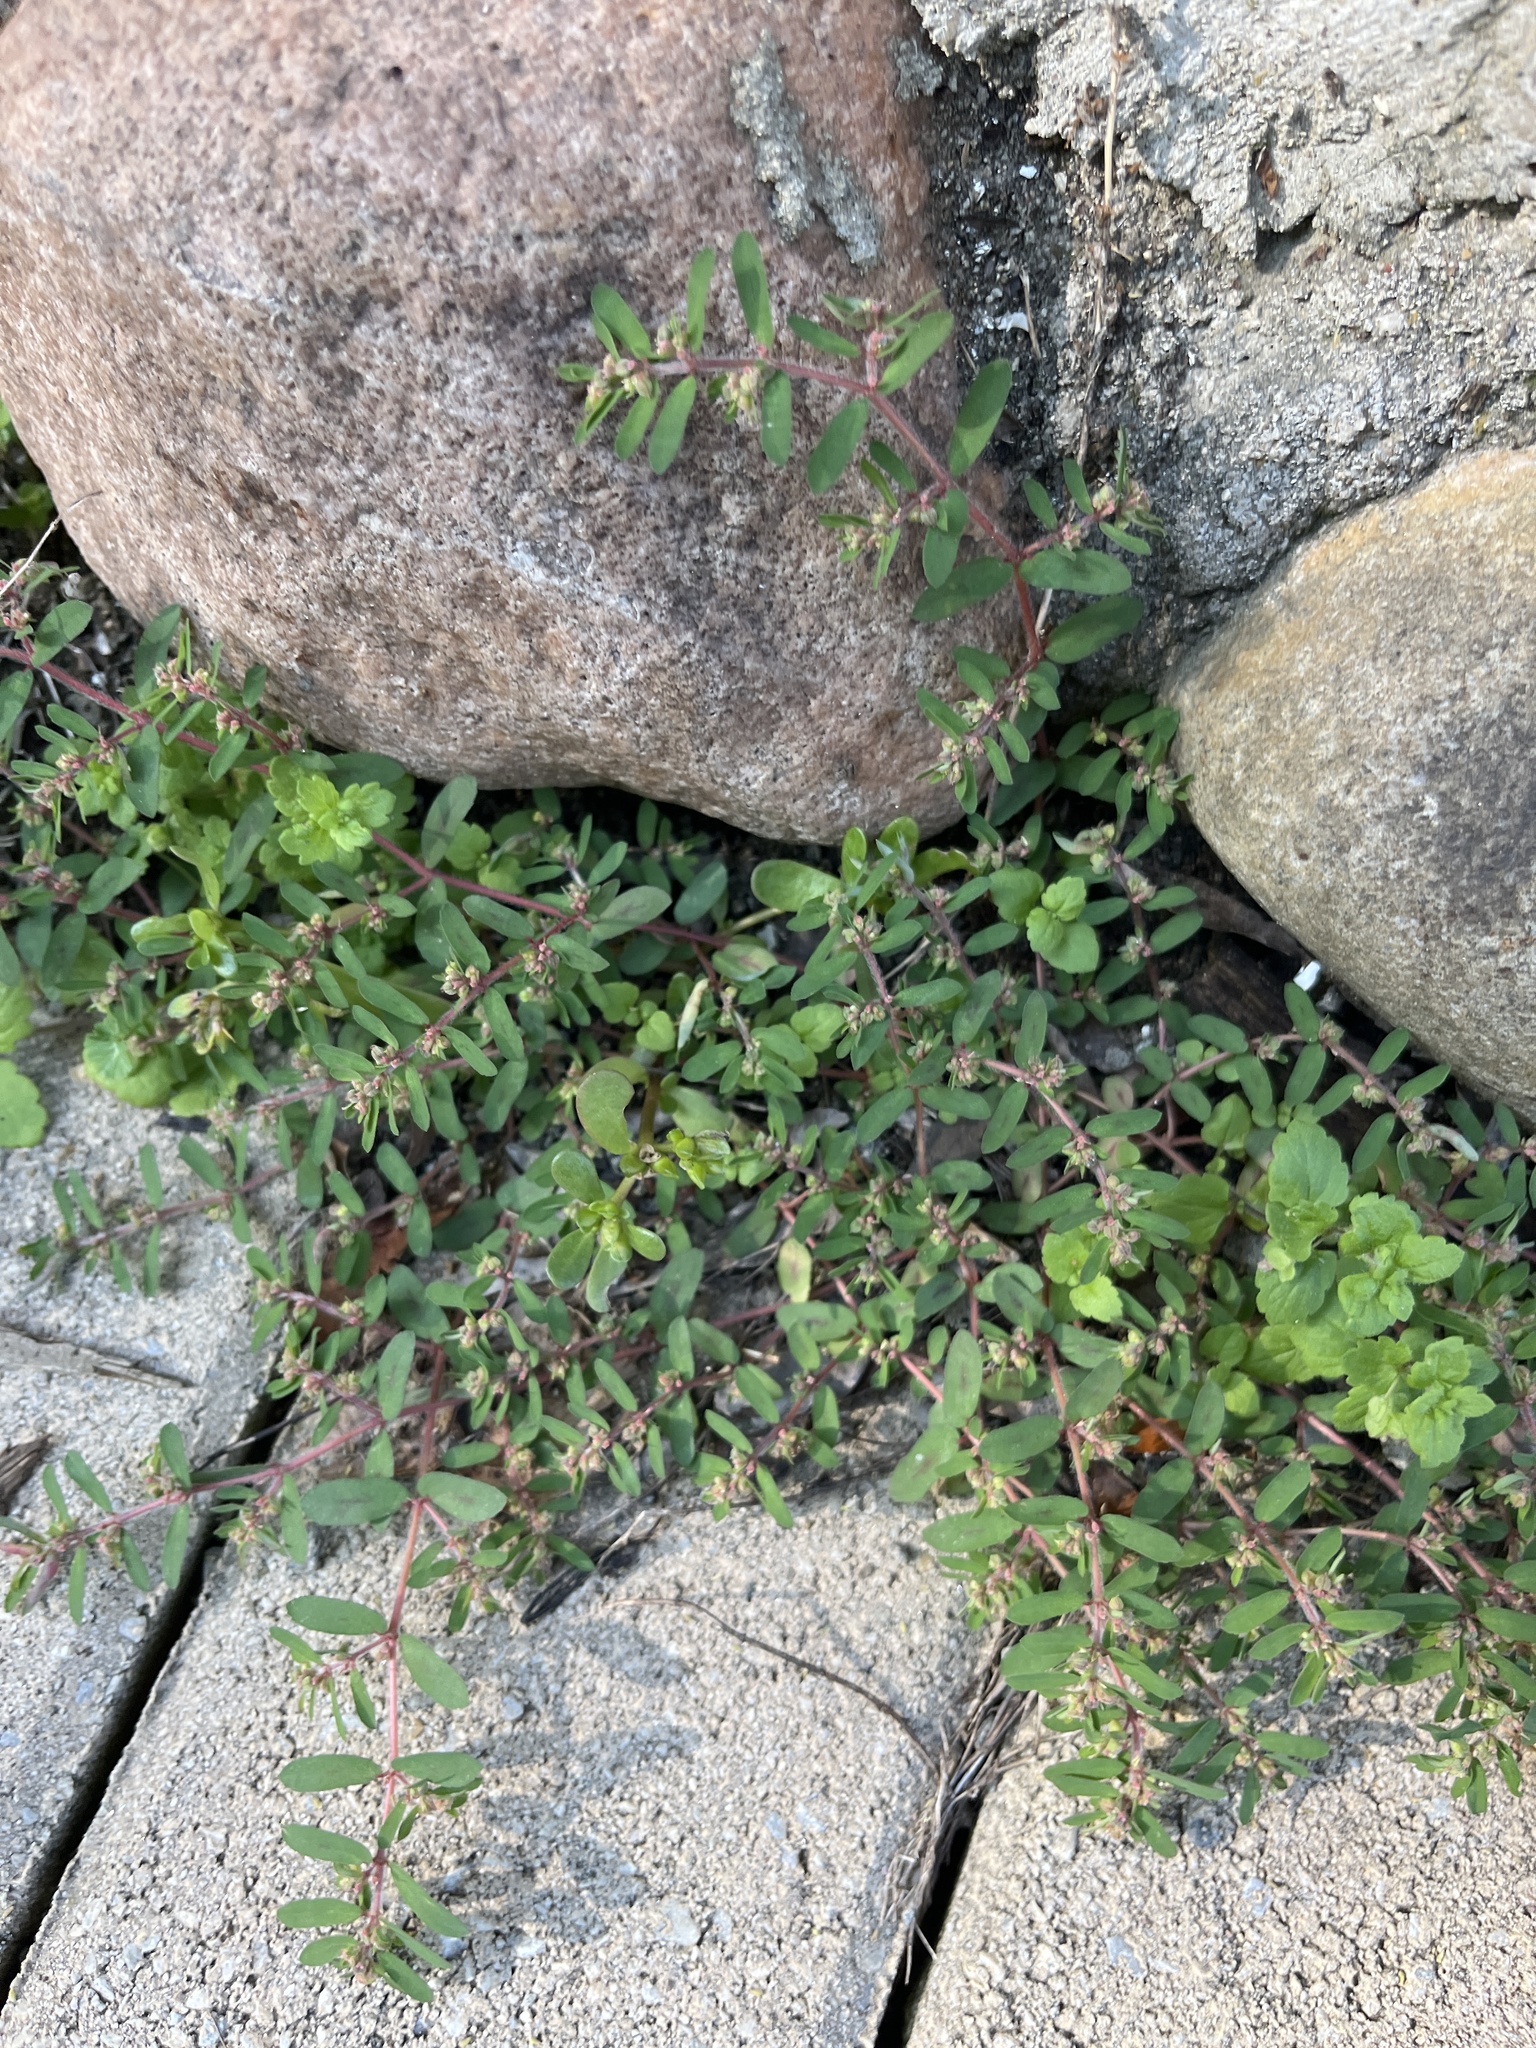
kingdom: Plantae
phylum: Tracheophyta
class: Magnoliopsida
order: Malpighiales
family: Euphorbiaceae
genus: Euphorbia
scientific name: Euphorbia maculata
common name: Spotted spurge
